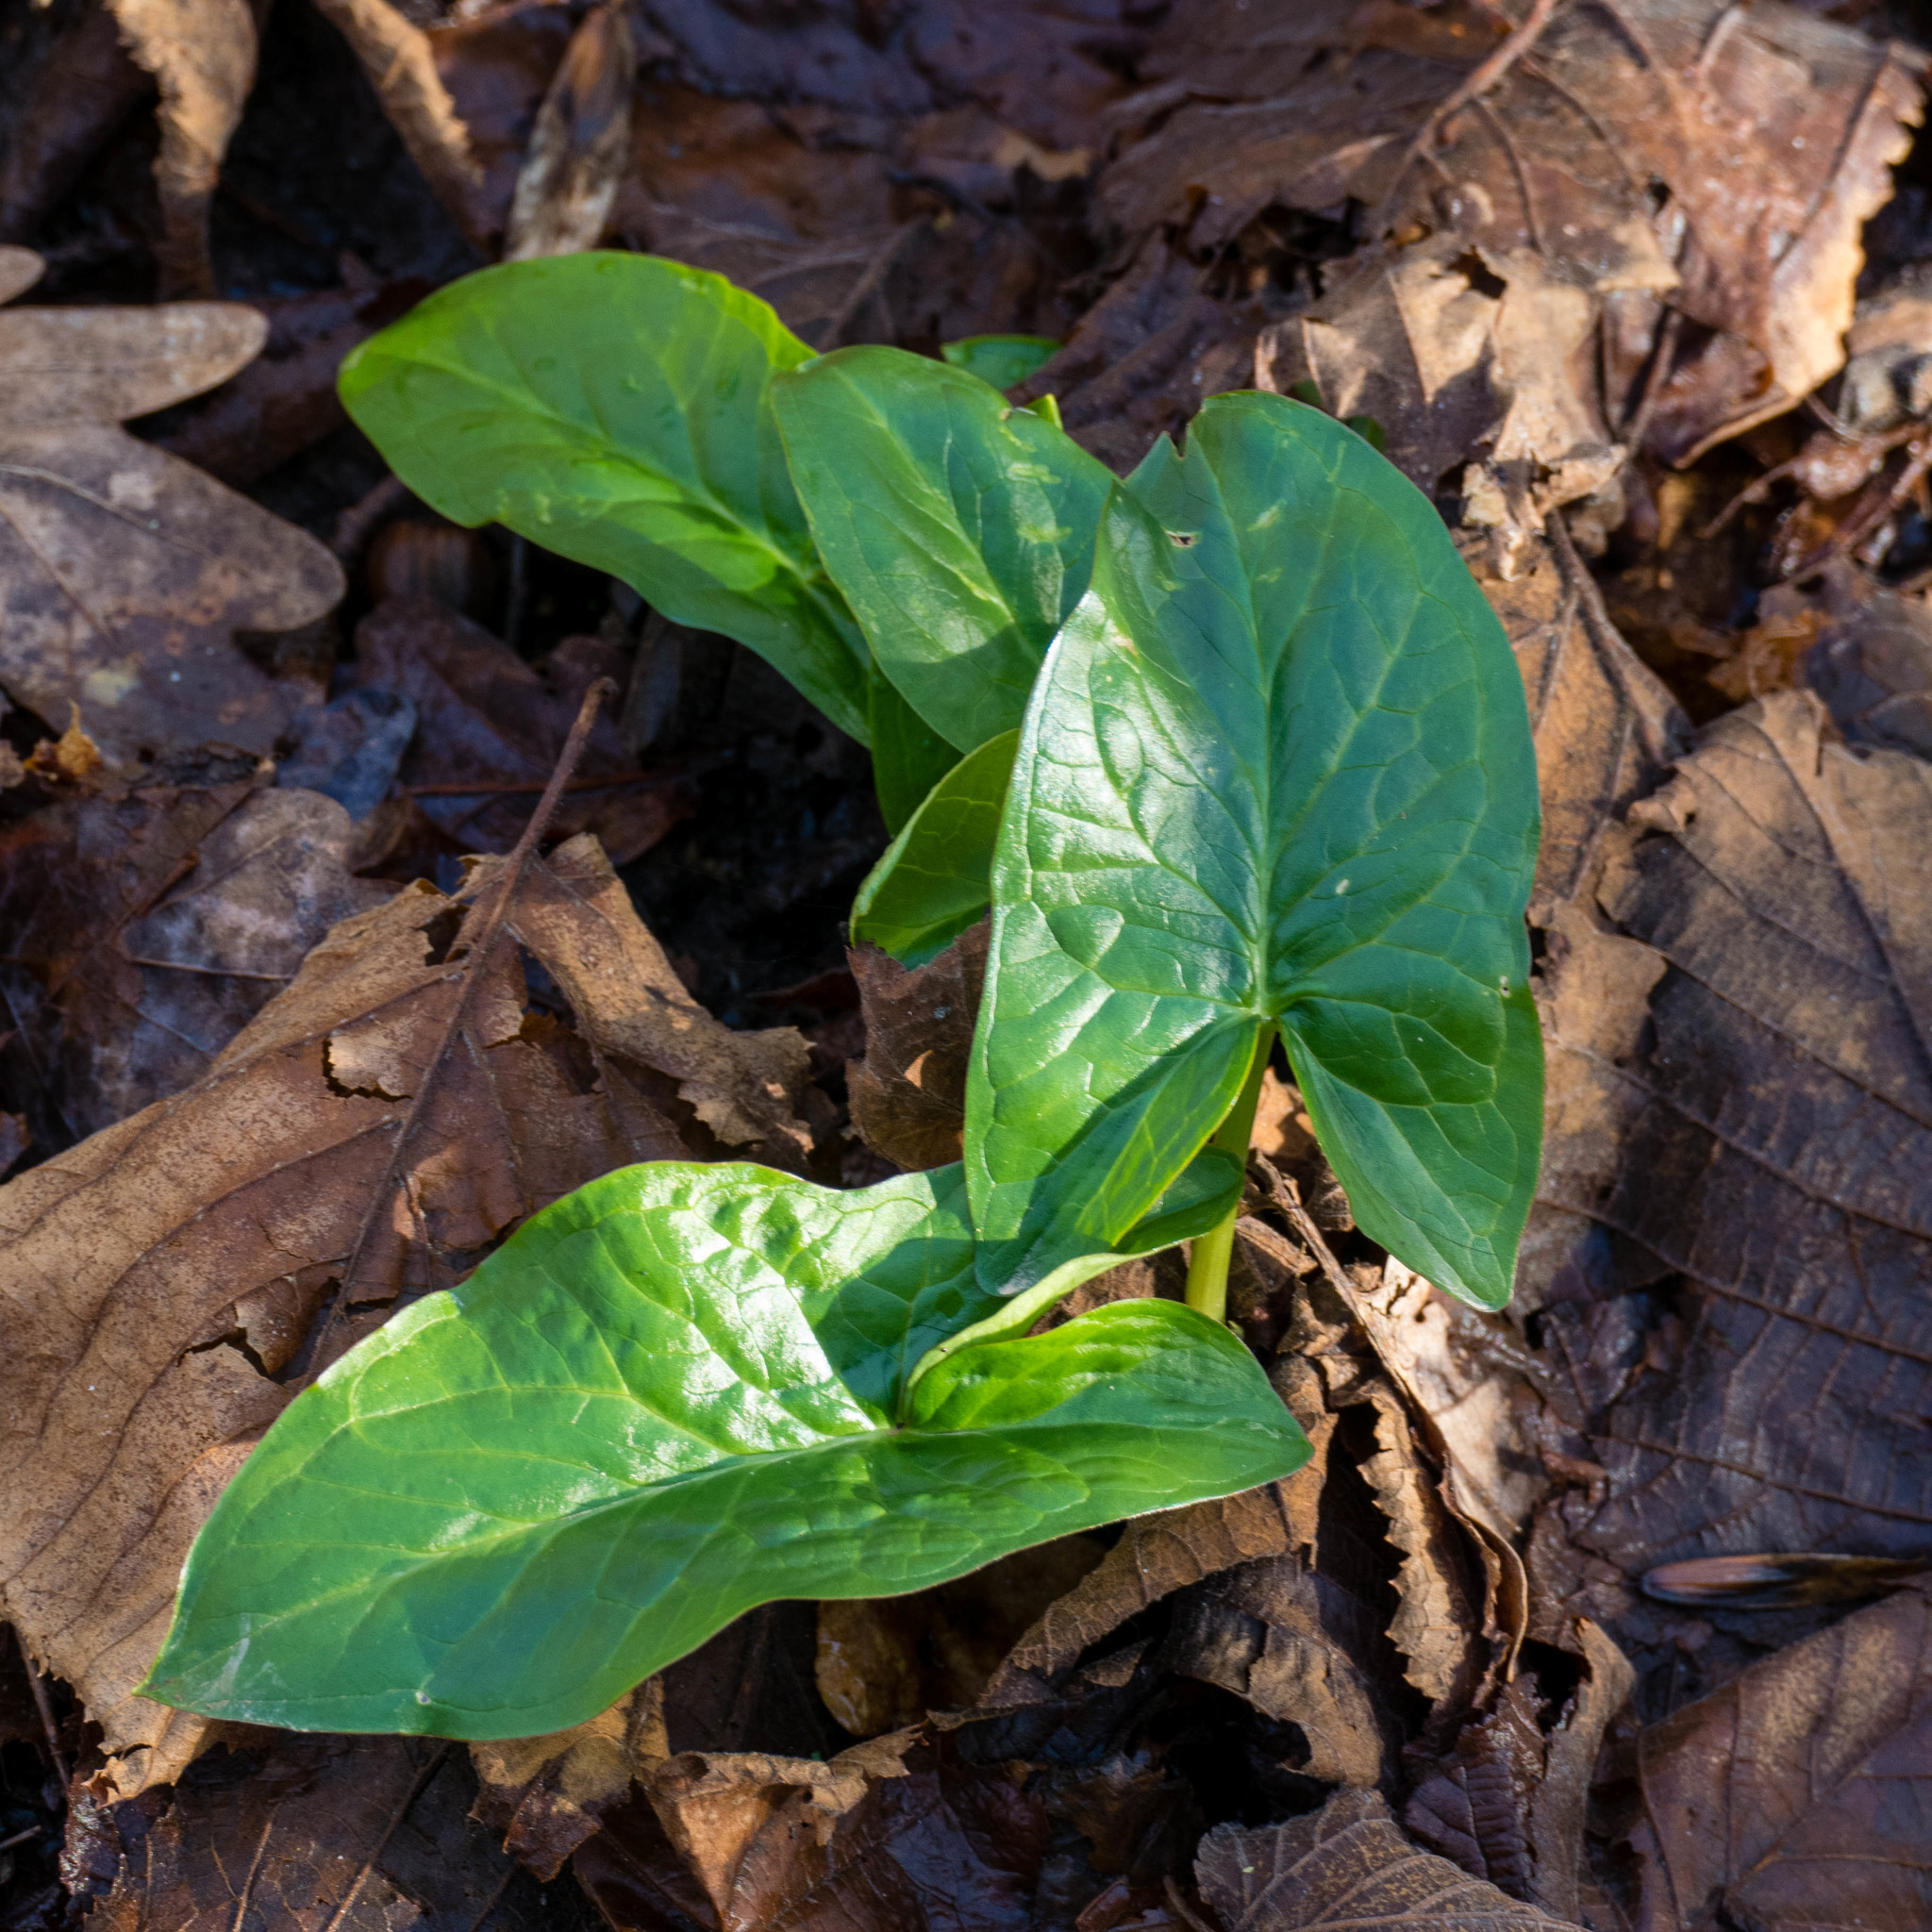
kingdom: Plantae
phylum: Tracheophyta
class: Liliopsida
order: Alismatales
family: Araceae
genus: Arum
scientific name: Arum maculatum
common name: Lords-and-ladies
